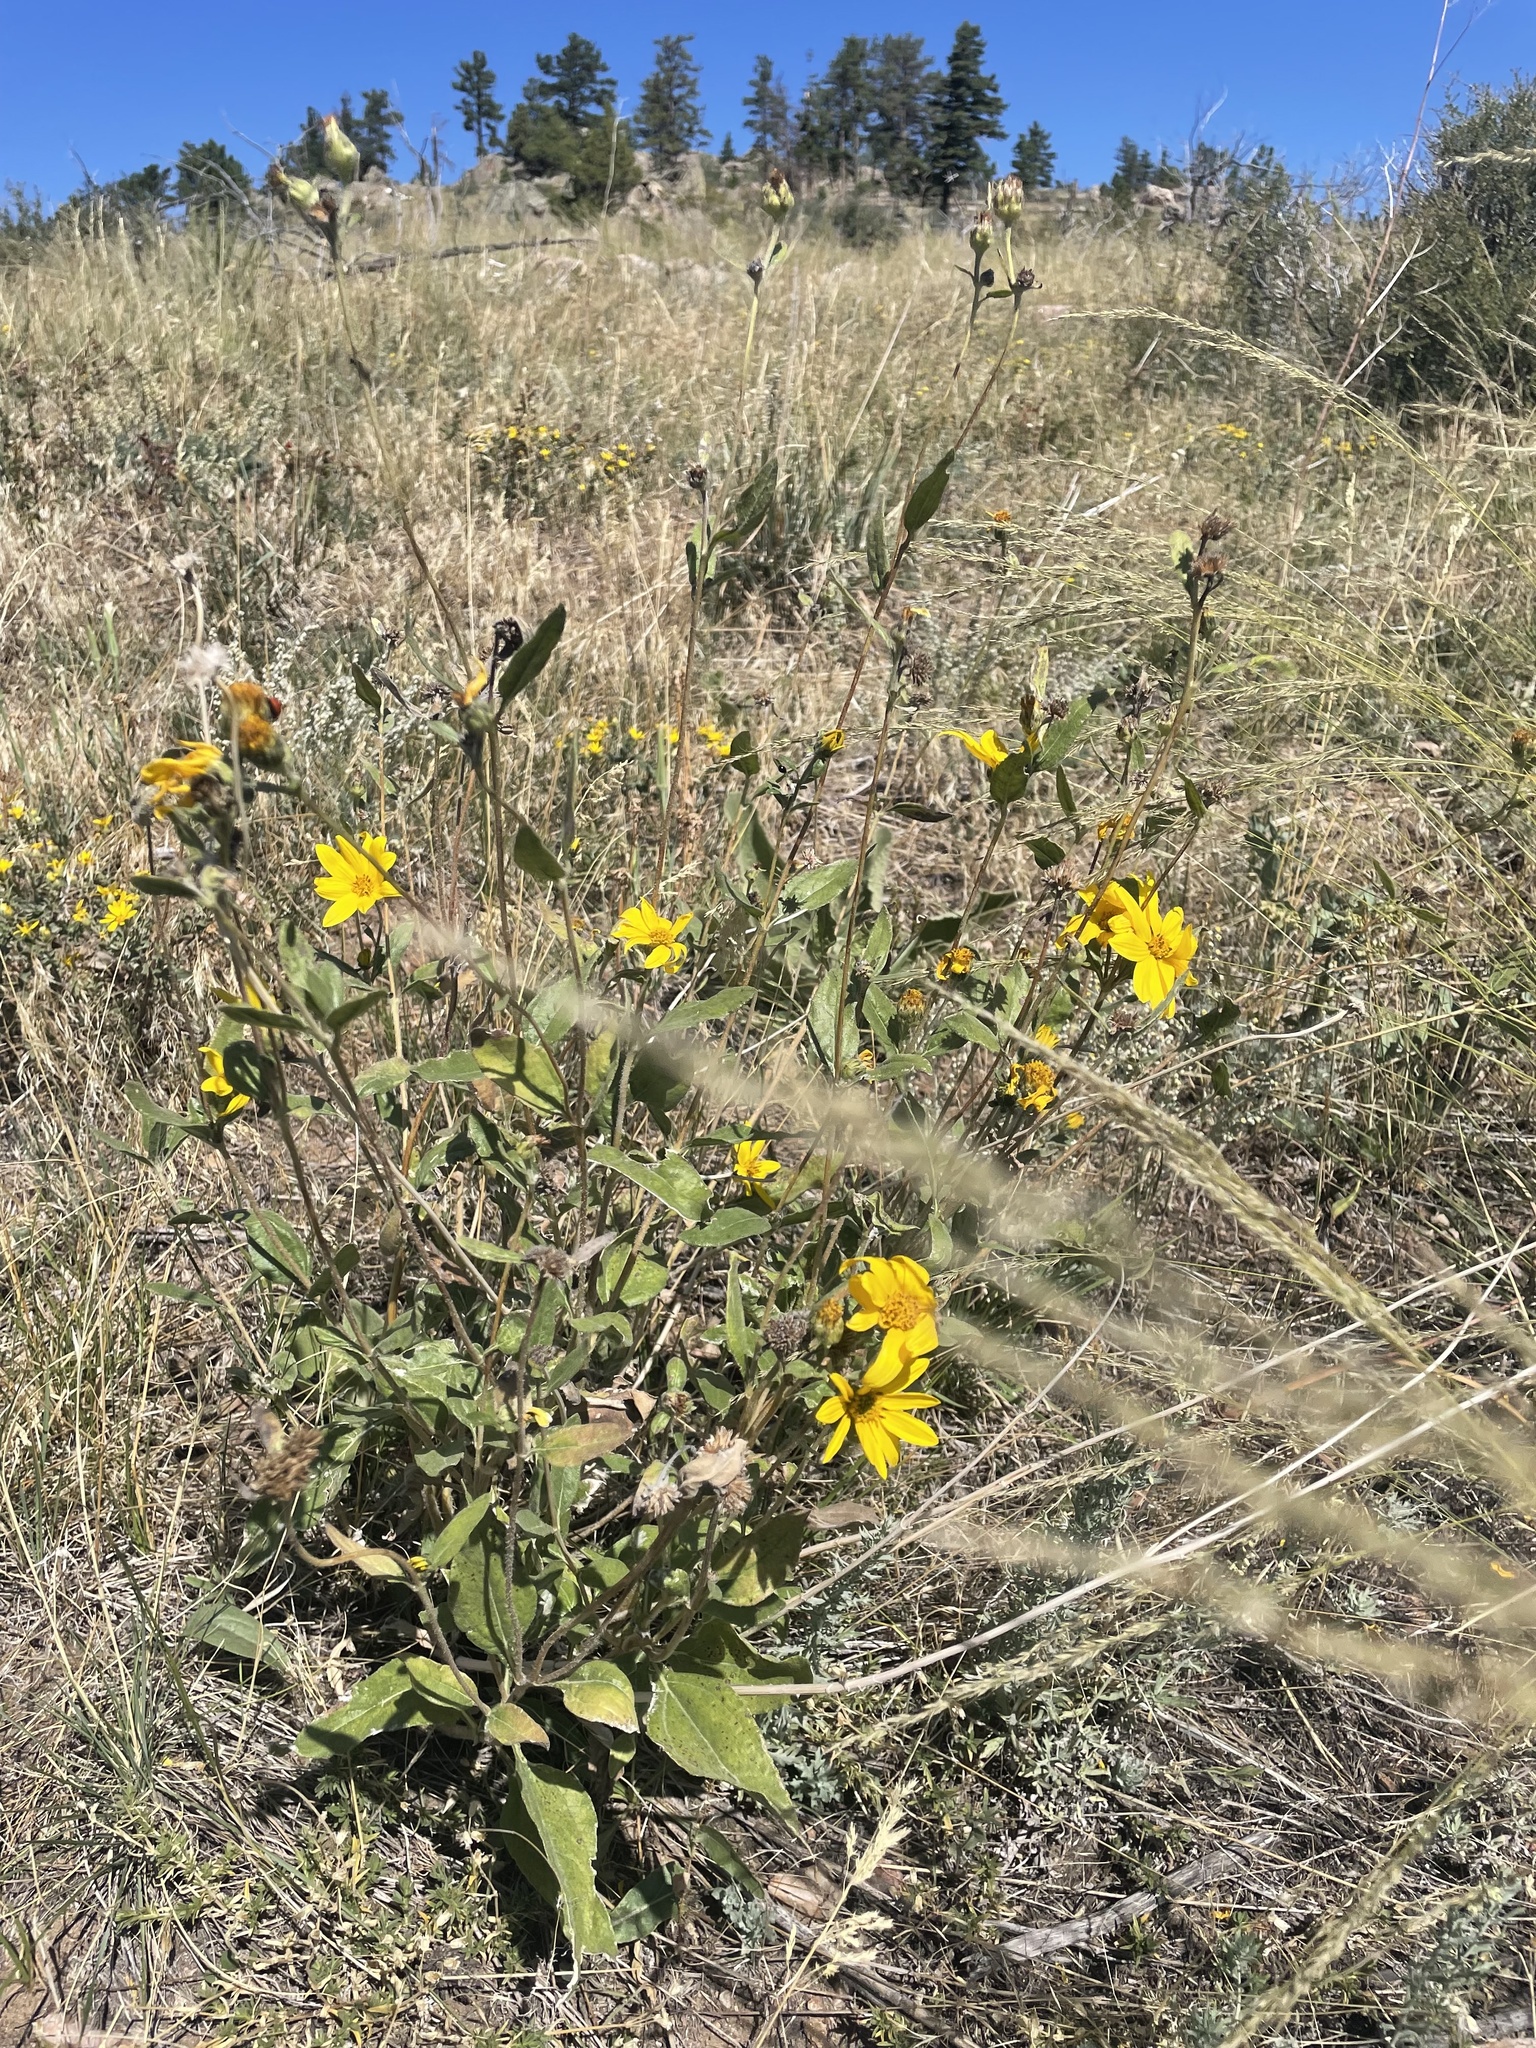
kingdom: Plantae
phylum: Tracheophyta
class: Magnoliopsida
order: Asterales
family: Asteraceae
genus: Helianthus
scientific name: Helianthus pumilus
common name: Dwarf sunflower
